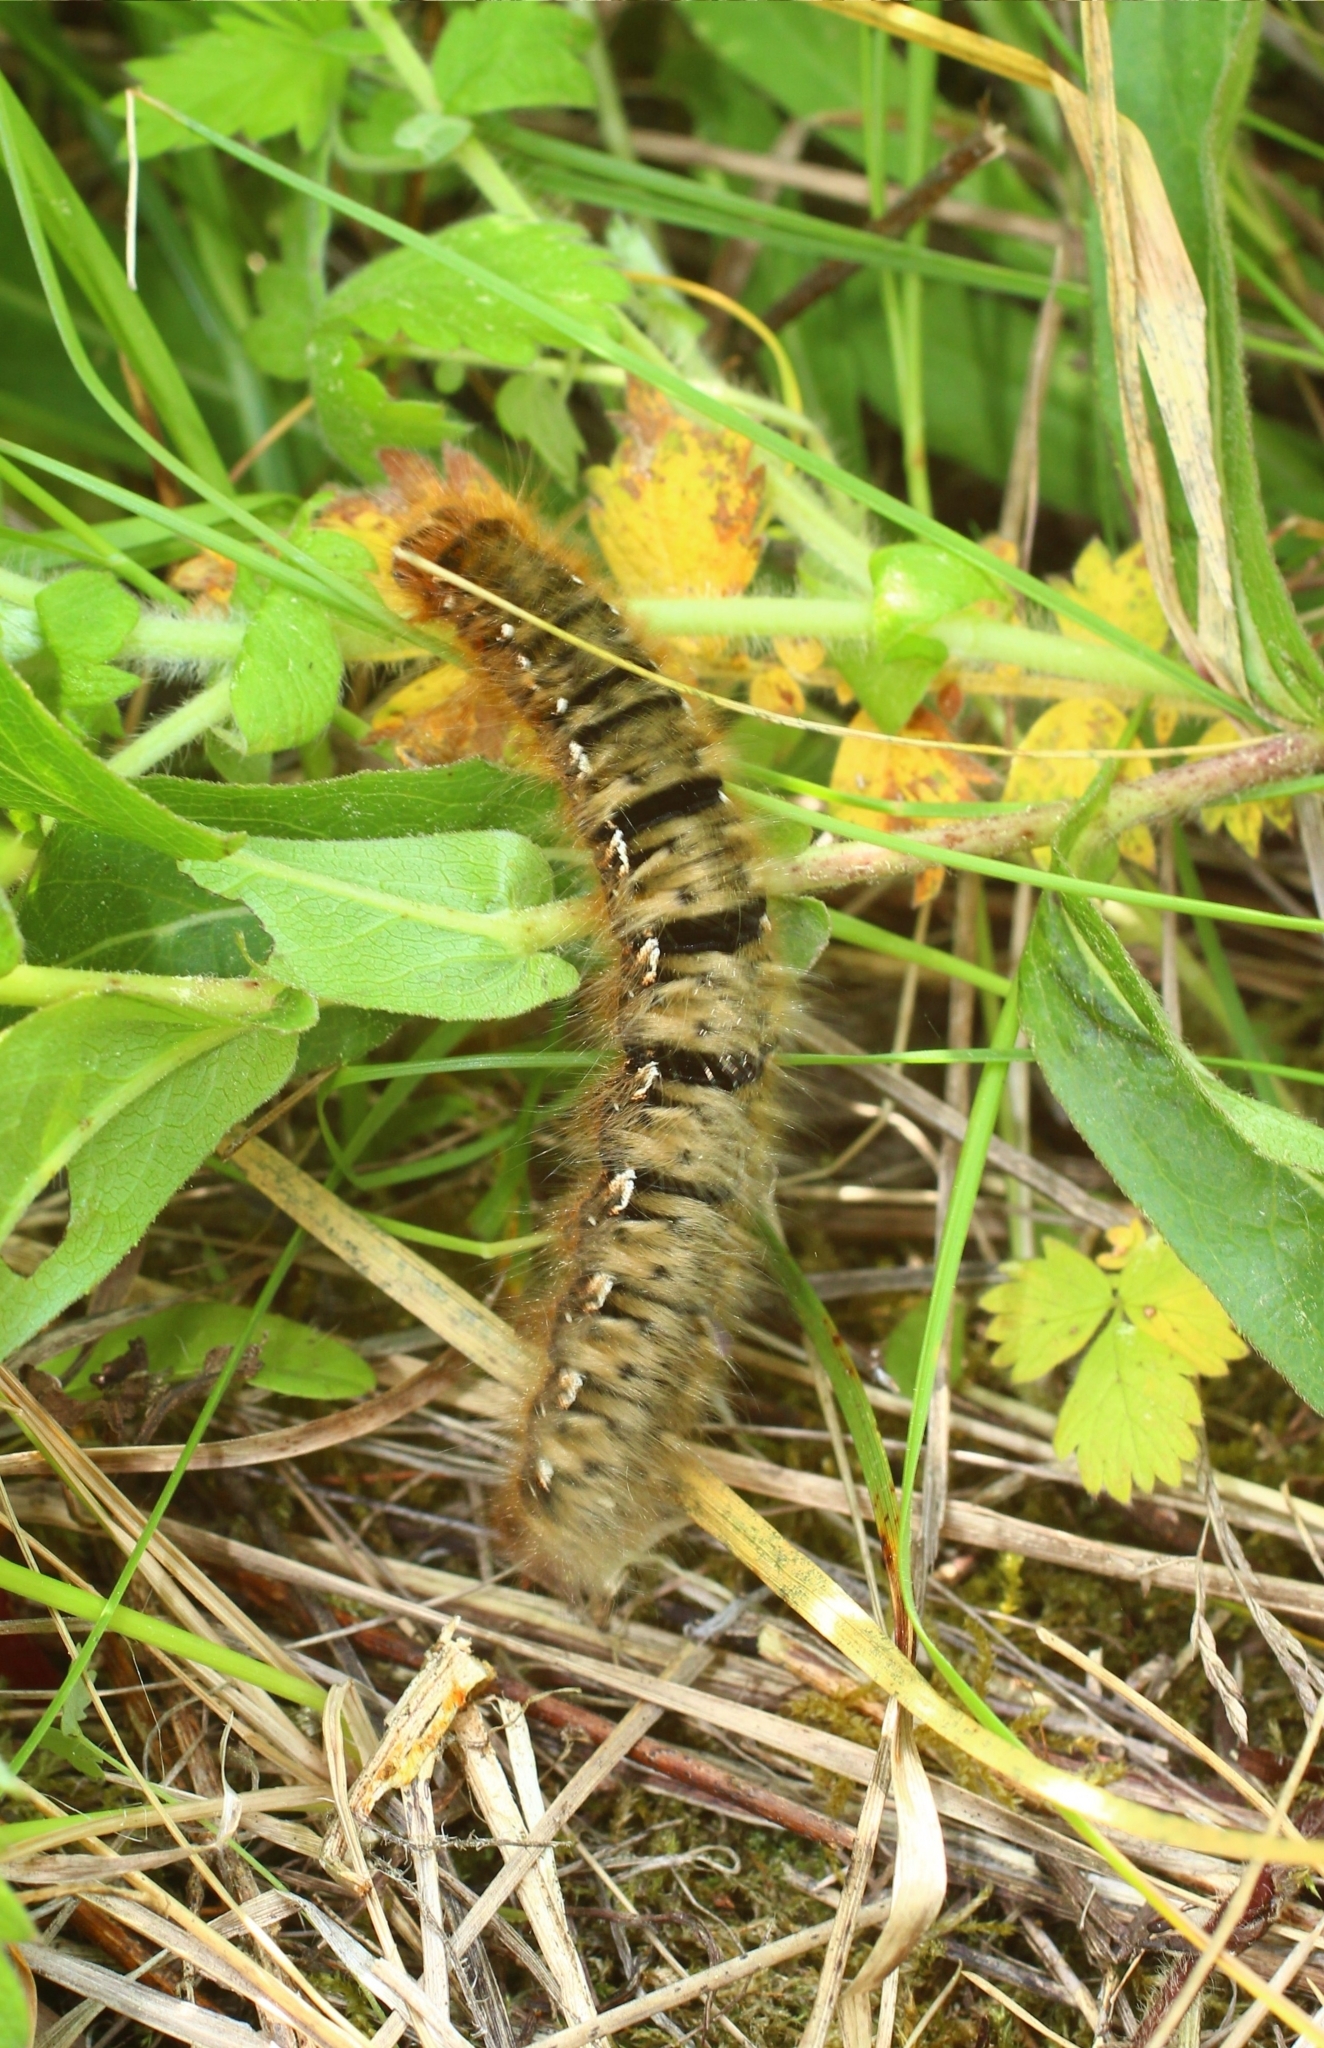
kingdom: Animalia
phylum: Arthropoda
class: Insecta
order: Lepidoptera
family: Lasiocampidae
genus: Lasiocampa
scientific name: Lasiocampa quercus
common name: Oak eggar
